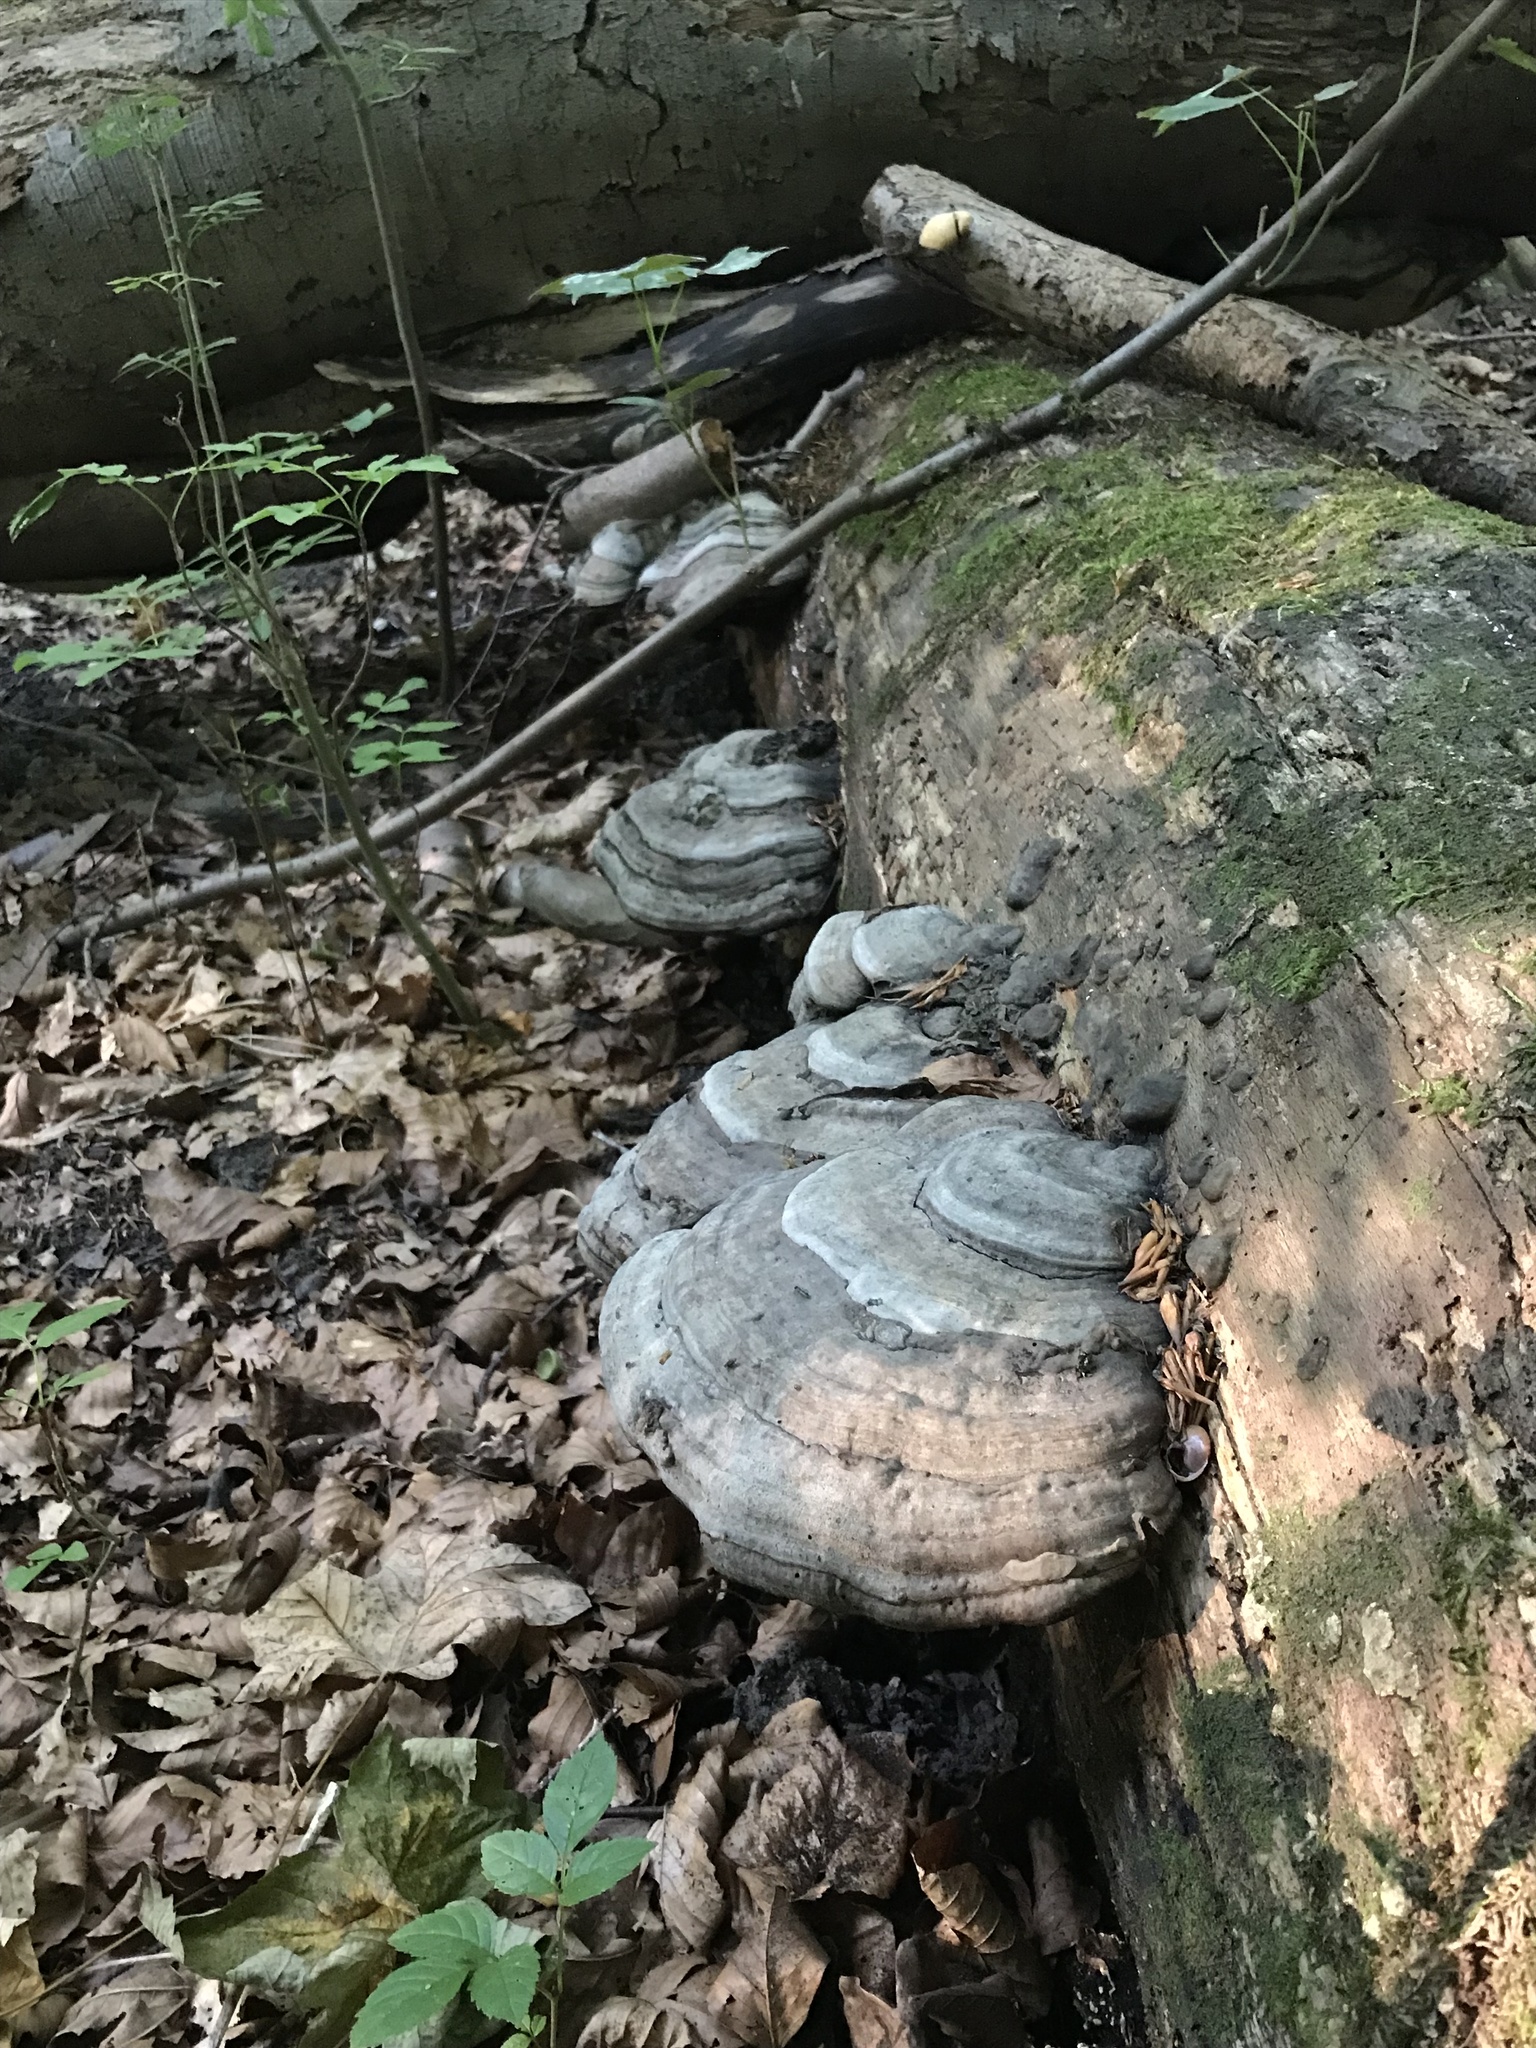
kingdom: Fungi
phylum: Basidiomycota
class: Agaricomycetes
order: Polyporales
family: Polyporaceae
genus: Fomes
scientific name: Fomes fomentarius
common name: Hoof fungus
